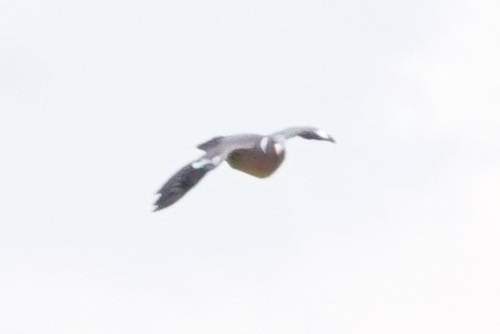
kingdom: Animalia
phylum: Chordata
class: Aves
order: Columbiformes
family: Columbidae
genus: Columba
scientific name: Columba palumbus
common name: Common wood pigeon
